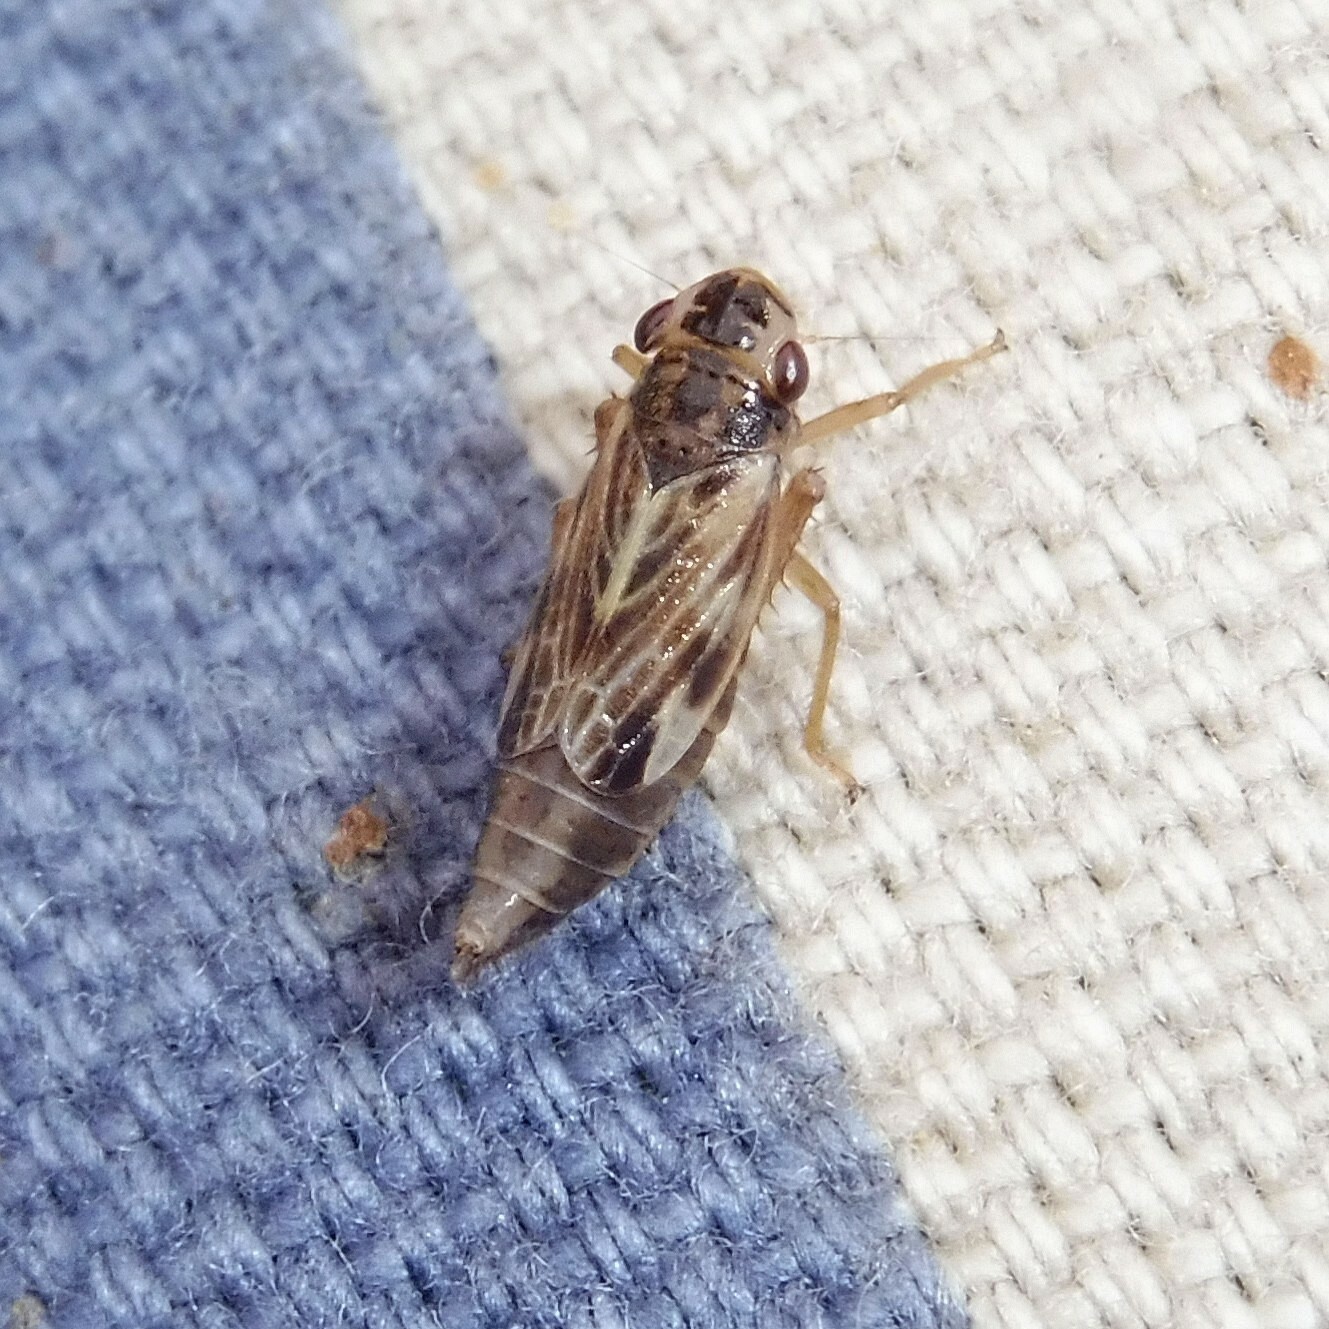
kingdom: Animalia
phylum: Arthropoda
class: Insecta
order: Hemiptera
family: Cicadellidae
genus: Evacanthus
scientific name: Evacanthus acuminatus
